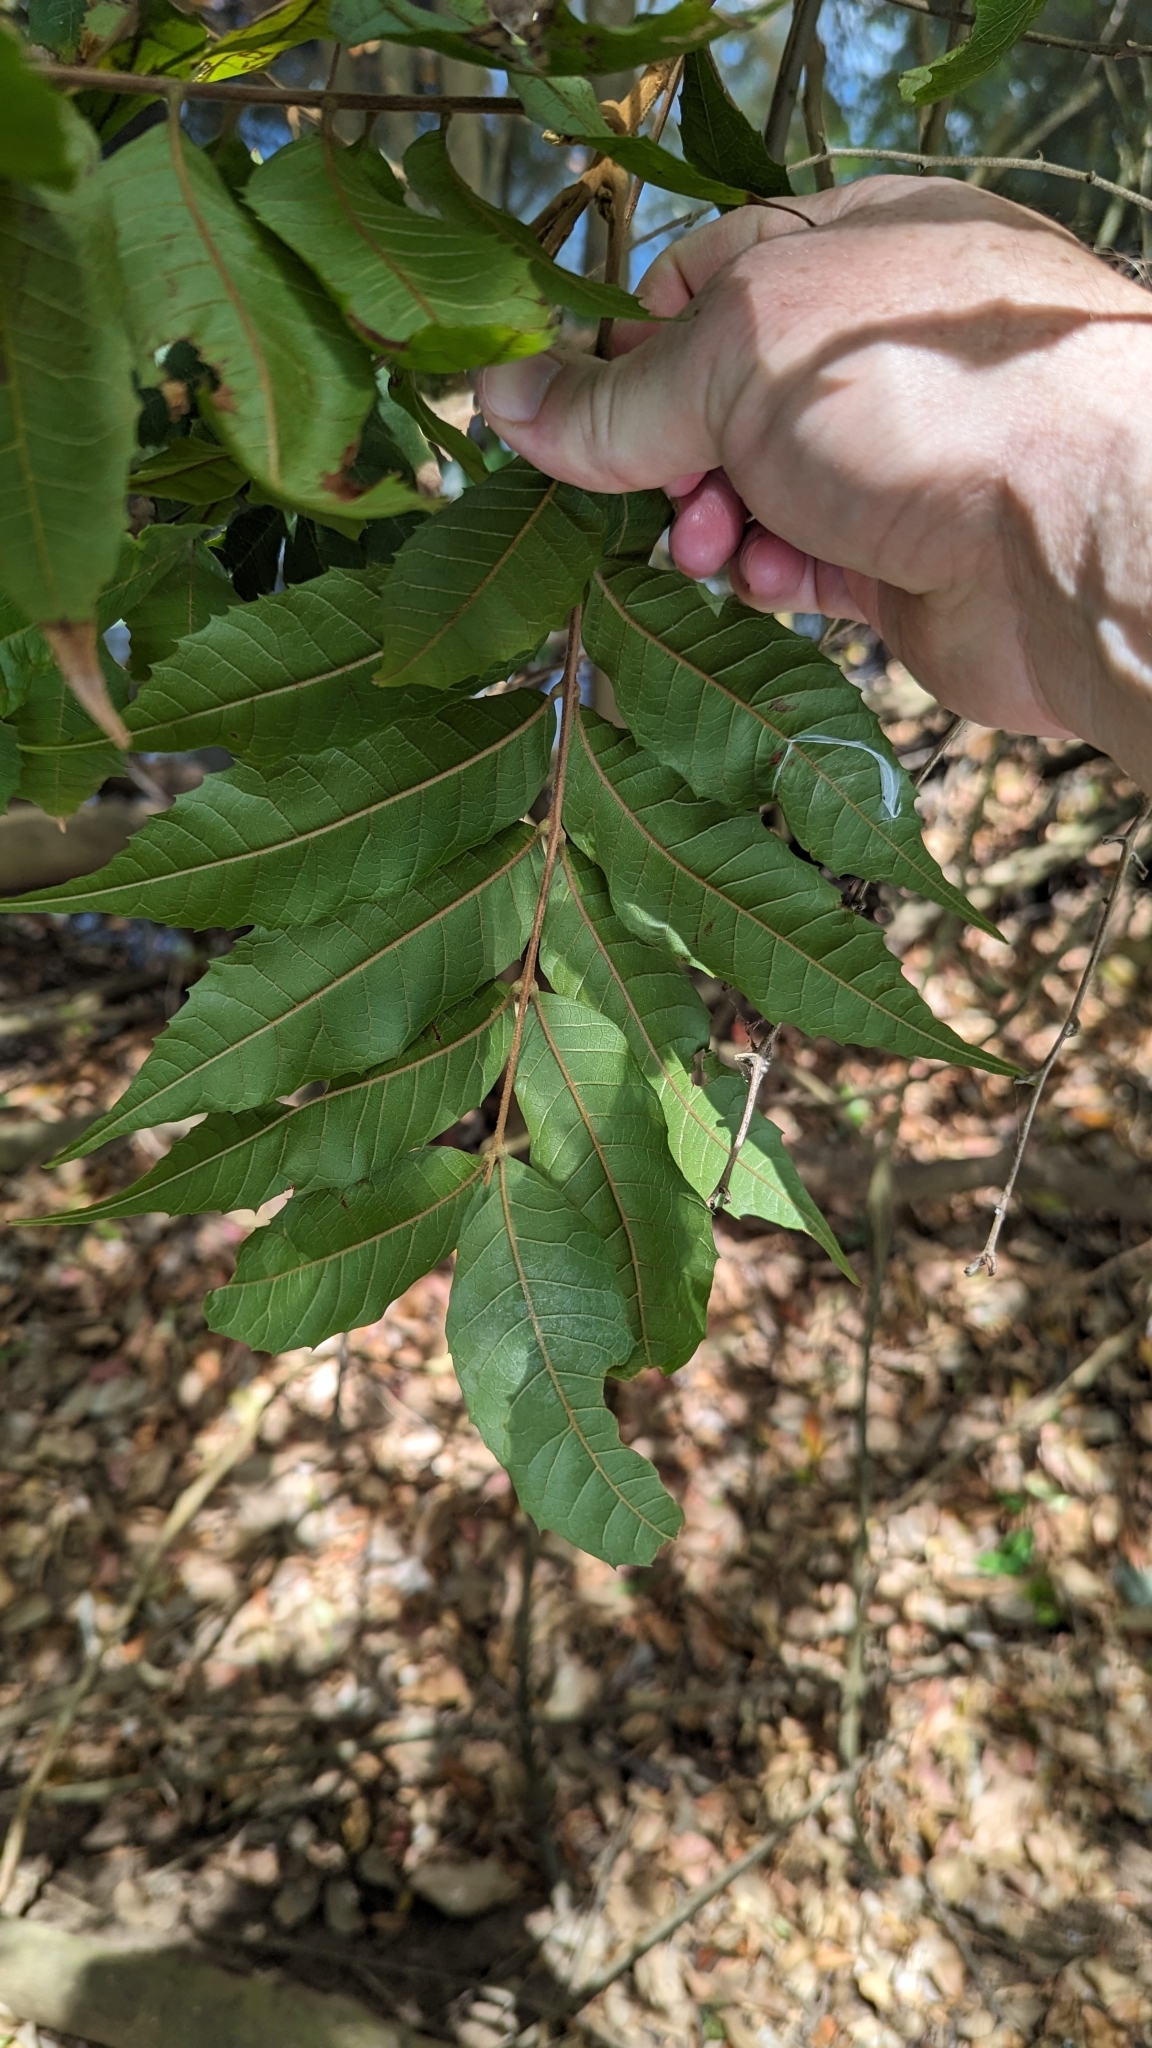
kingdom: Plantae
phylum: Tracheophyta
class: Magnoliopsida
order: Sapindales
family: Sapindaceae
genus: Cupaniopsis
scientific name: Cupaniopsis serrata
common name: Rusty tuckeroo
